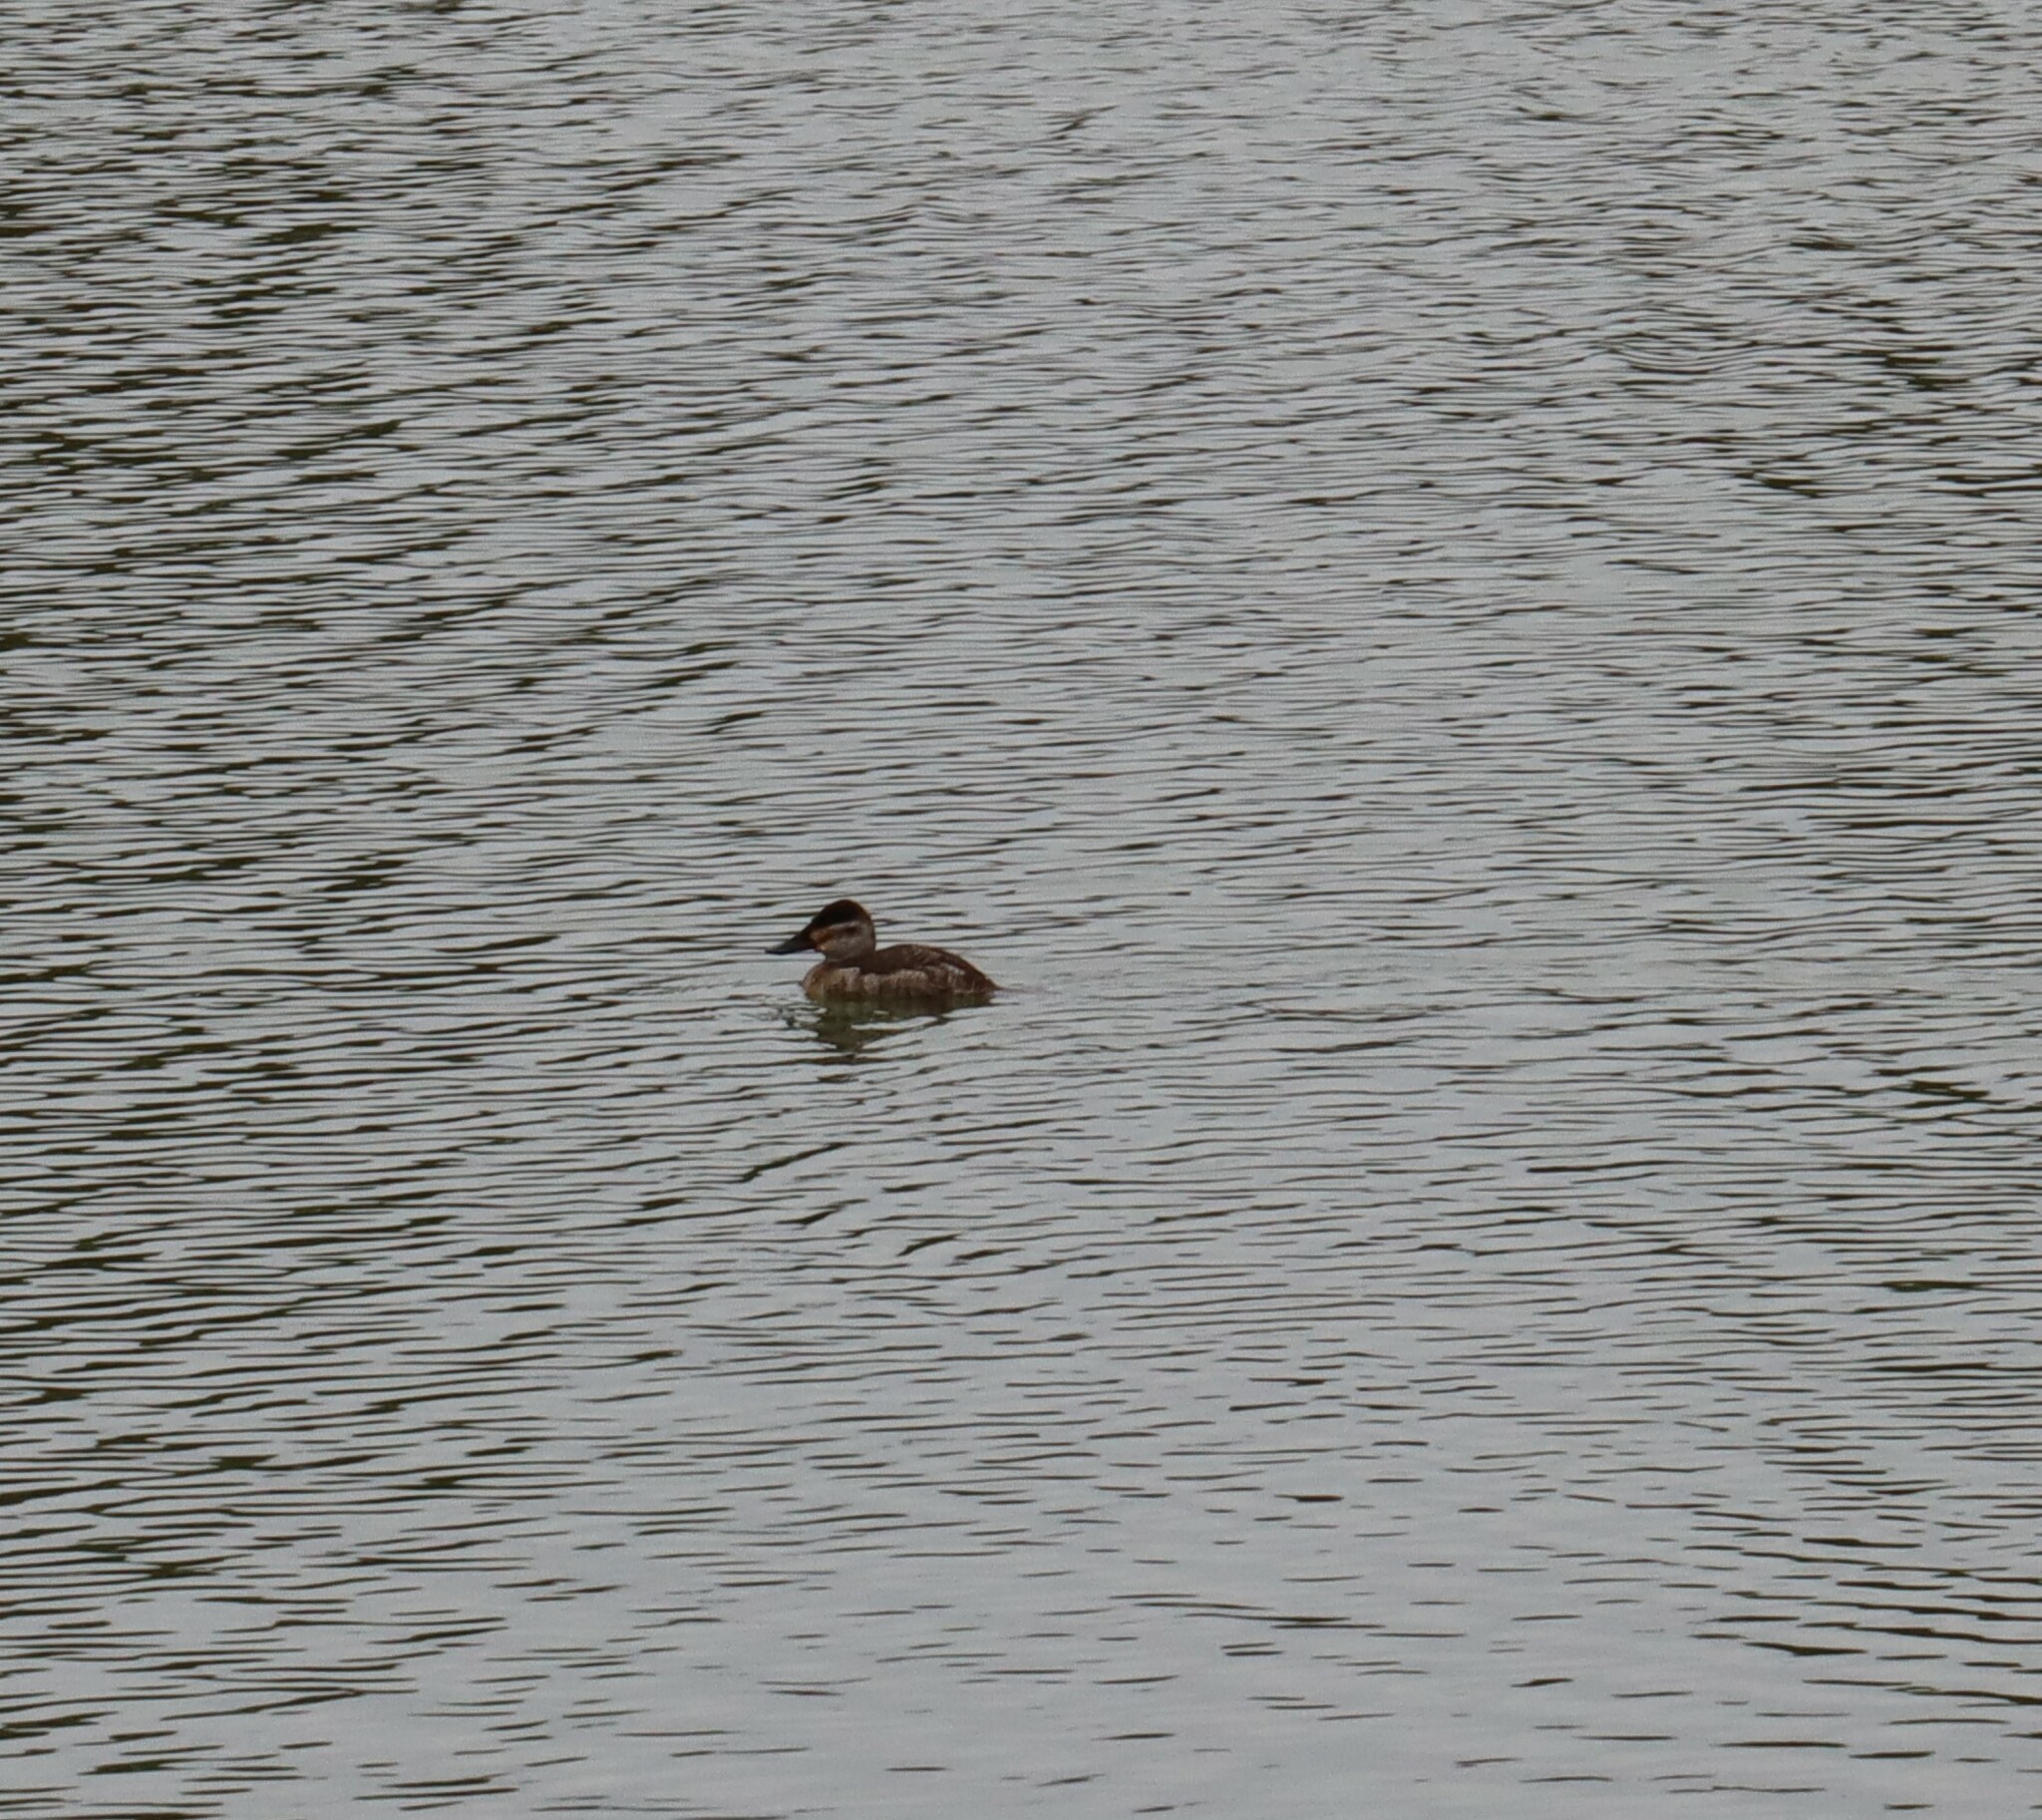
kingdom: Animalia
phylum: Chordata
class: Aves
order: Anseriformes
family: Anatidae
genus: Oxyura
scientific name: Oxyura jamaicensis
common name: Ruddy duck
